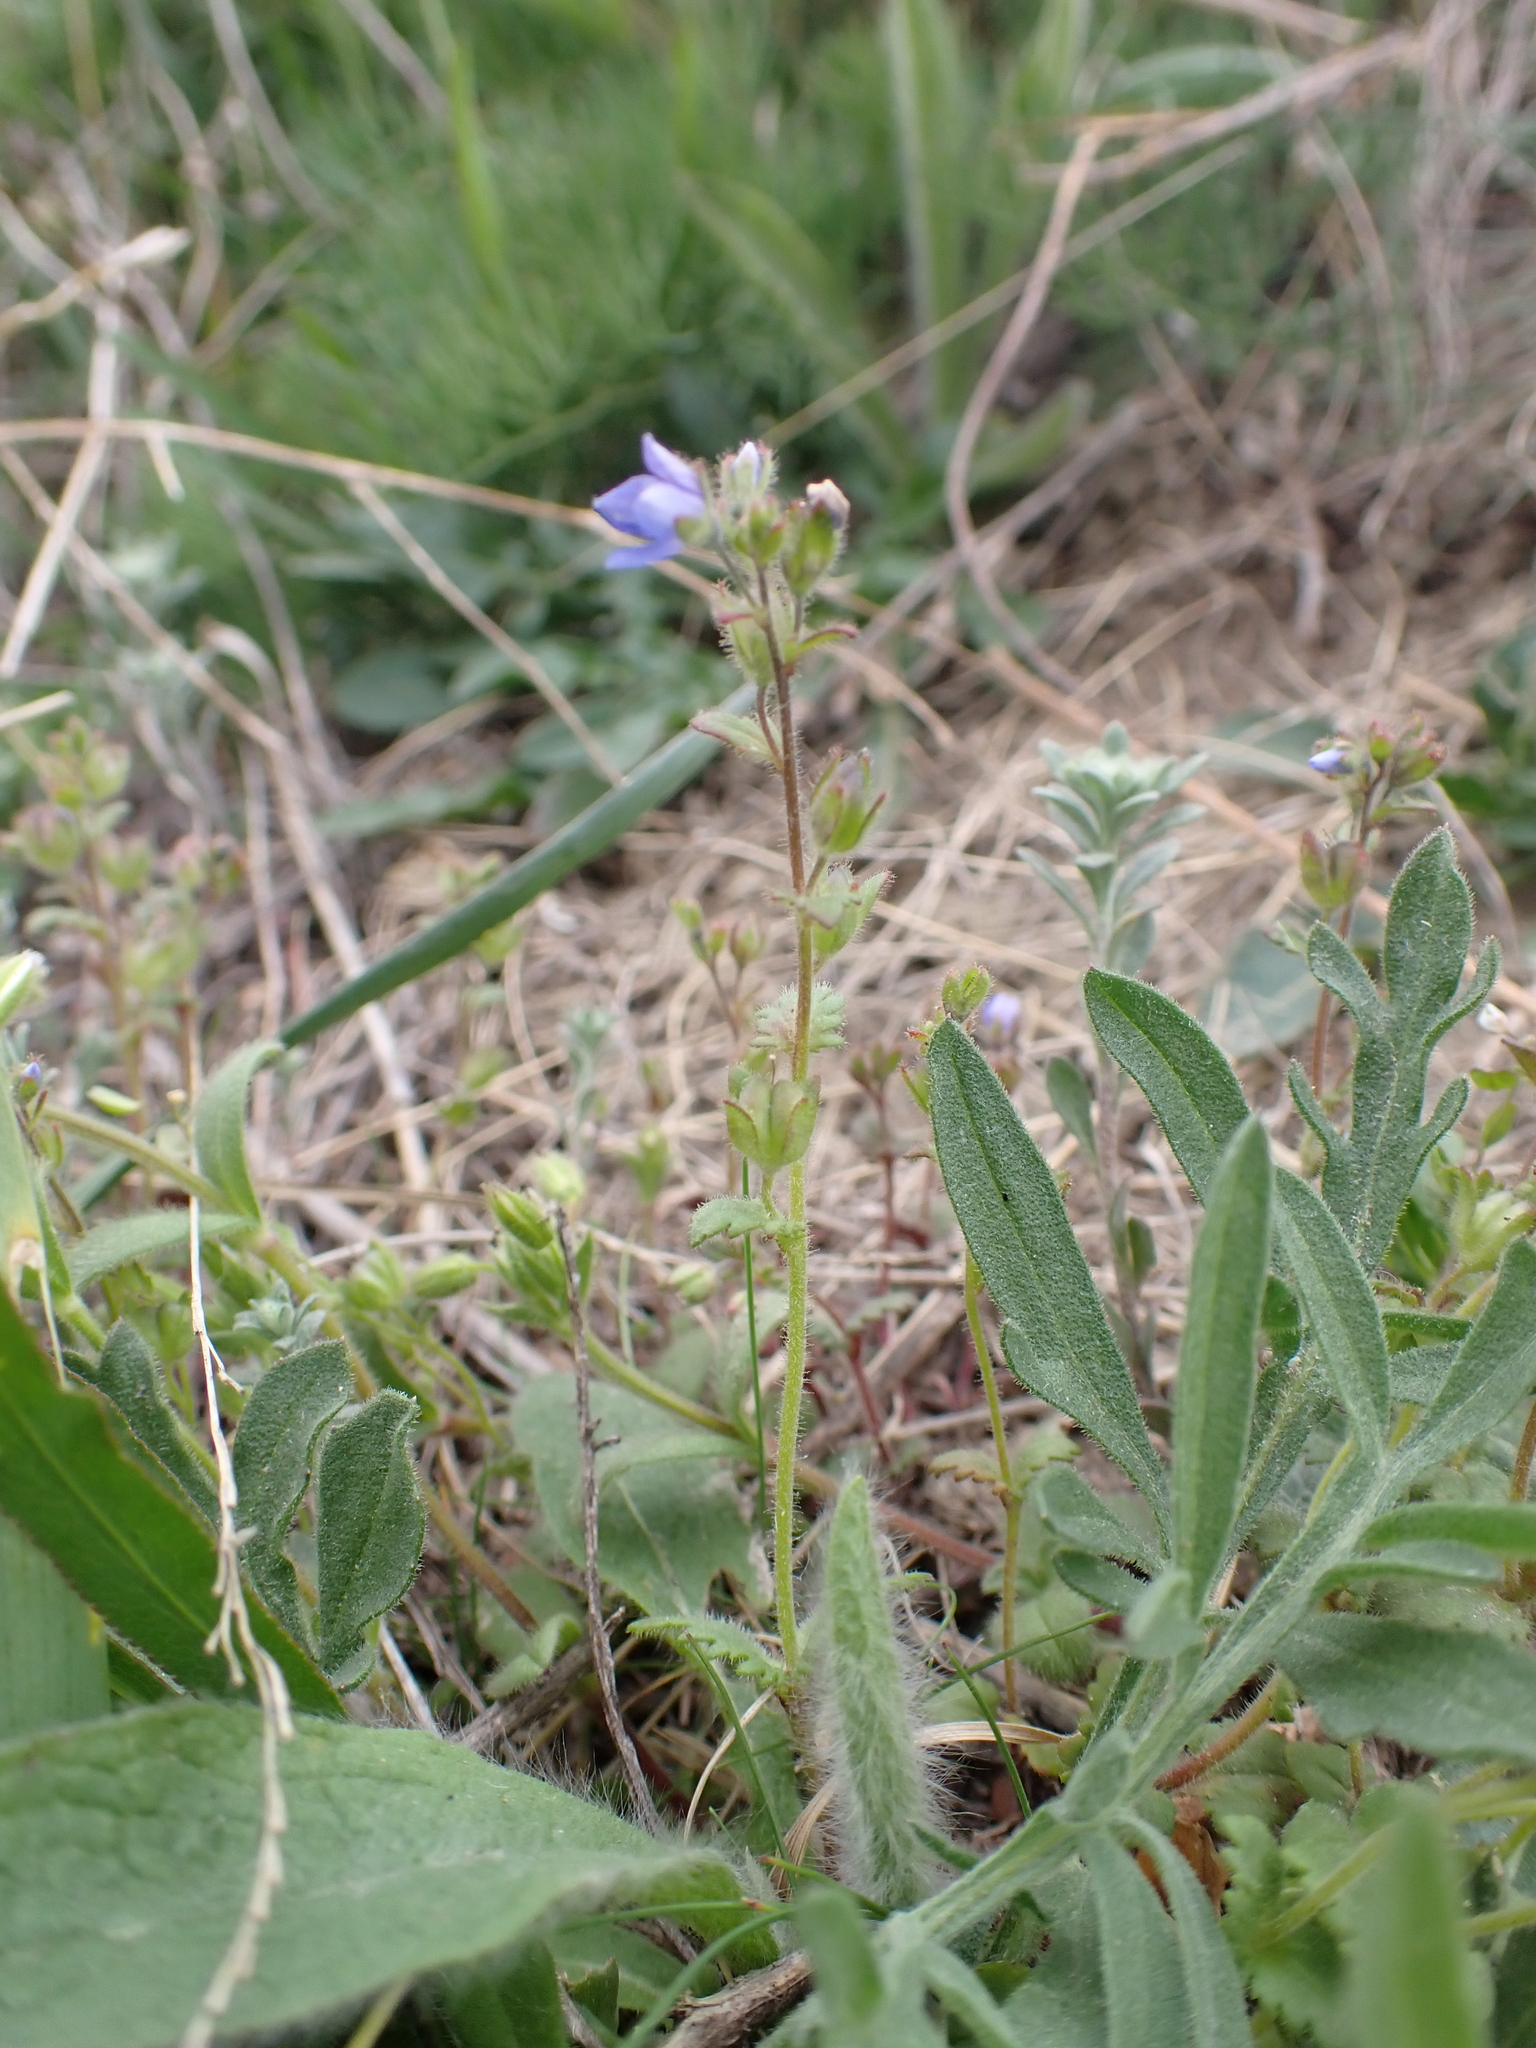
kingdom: Plantae
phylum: Tracheophyta
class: Magnoliopsida
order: Lamiales
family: Plantaginaceae
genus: Veronica
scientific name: Veronica praecox
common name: Breckland speedwell
